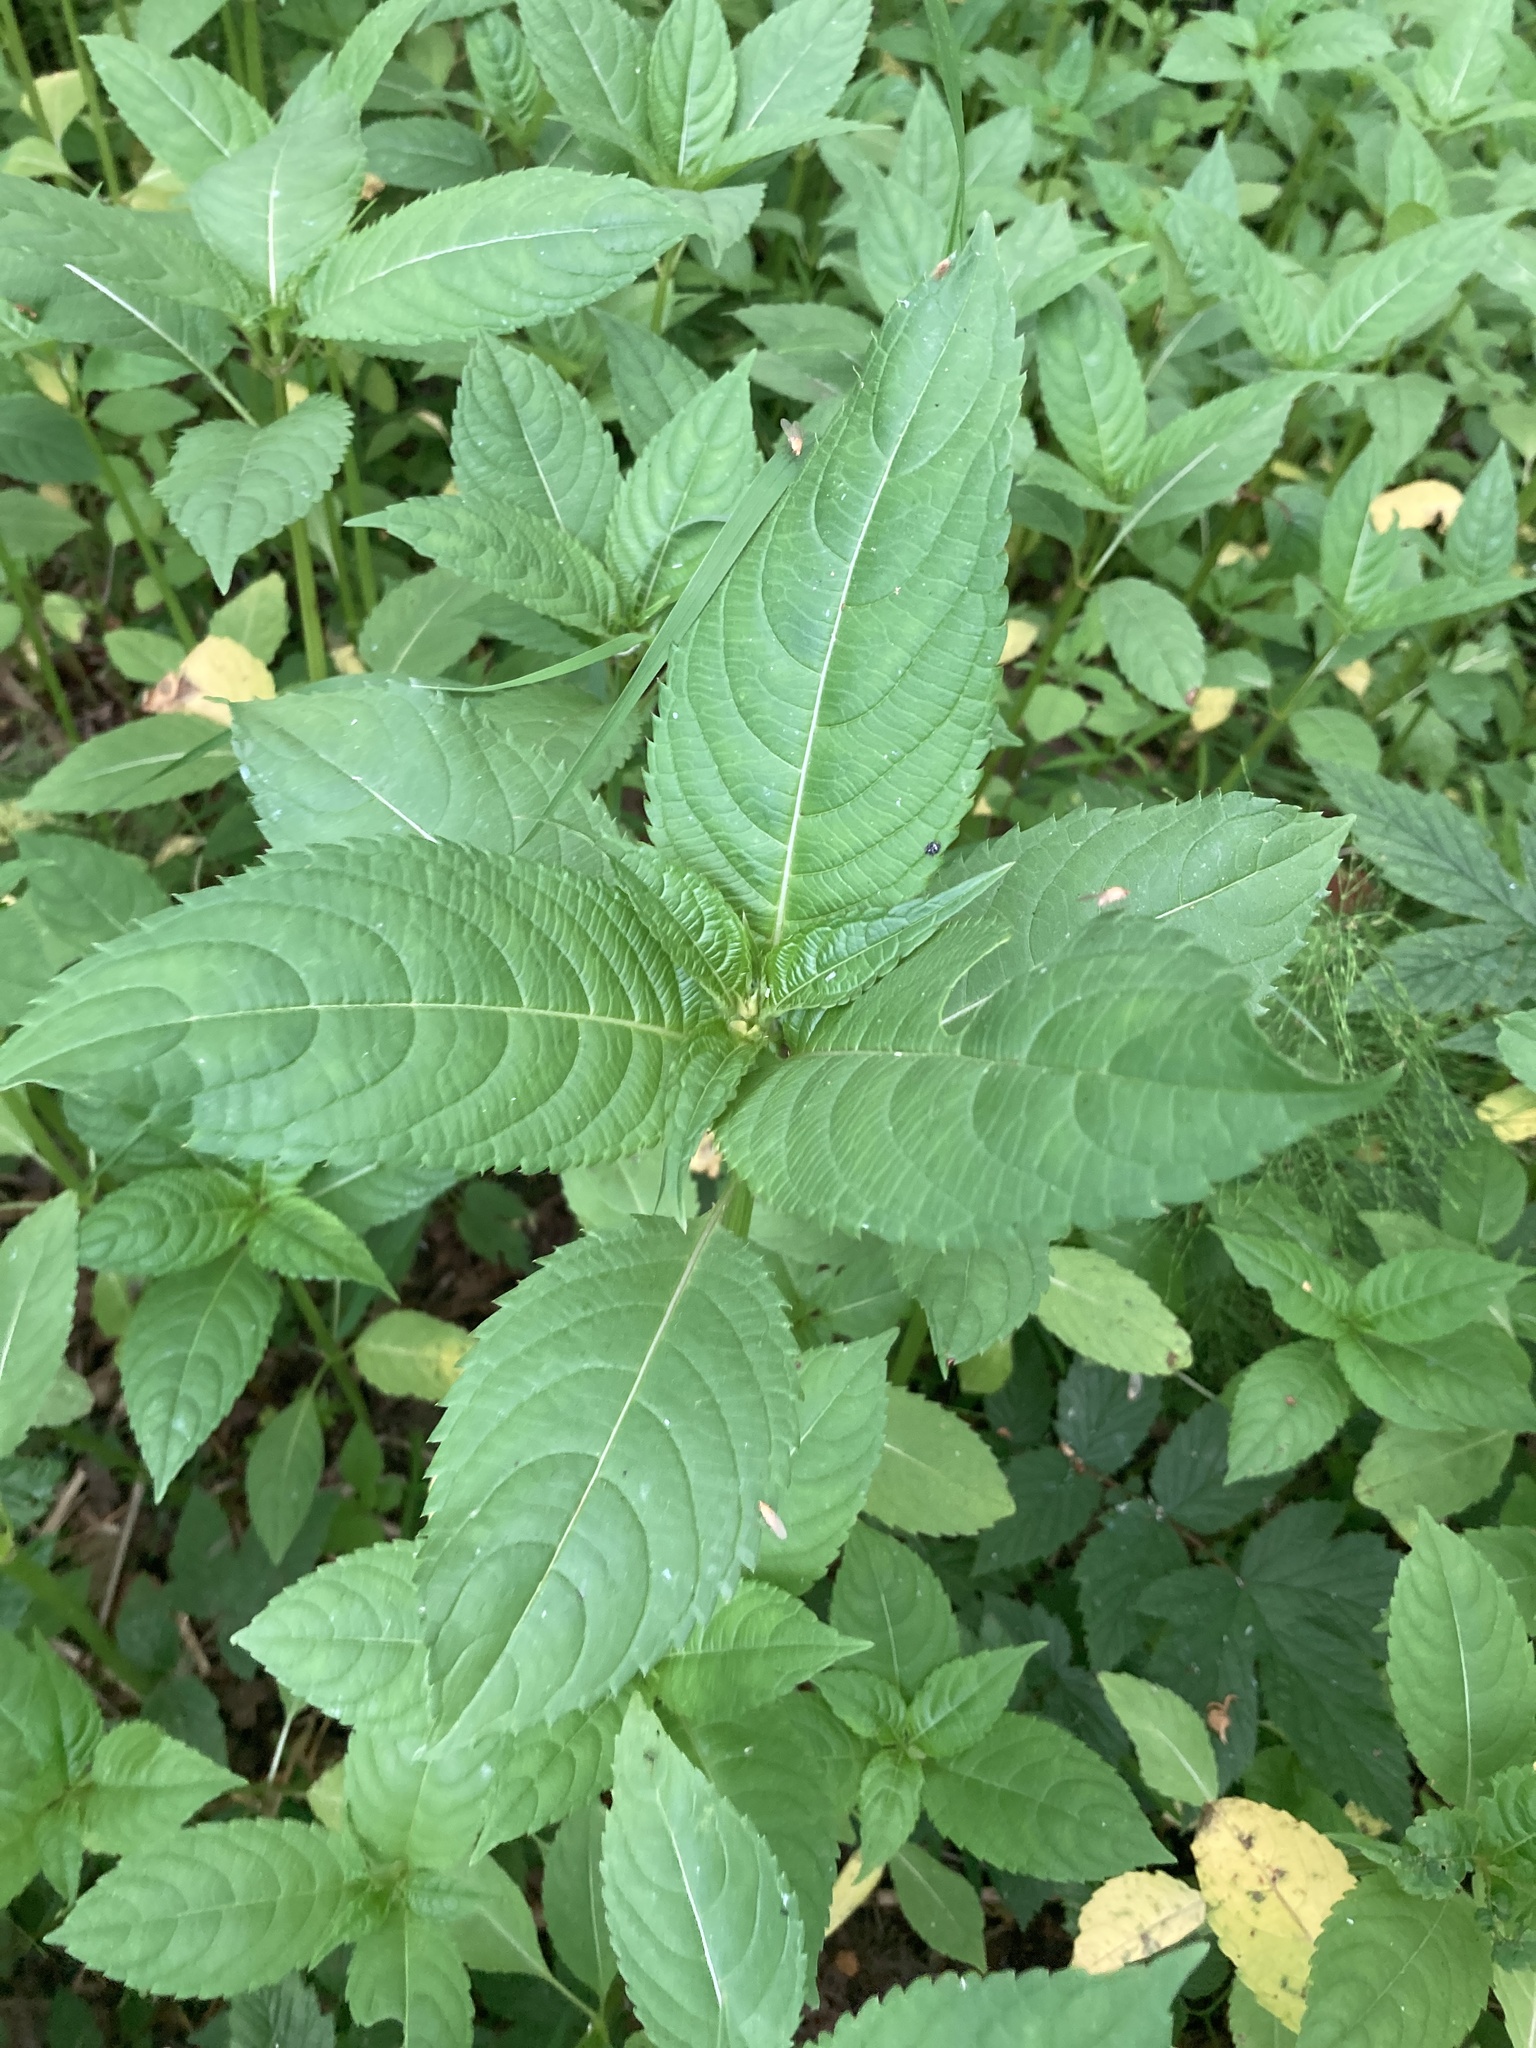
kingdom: Plantae
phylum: Tracheophyta
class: Magnoliopsida
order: Ericales
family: Balsaminaceae
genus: Impatiens
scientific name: Impatiens glandulifera
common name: Himalayan balsam
